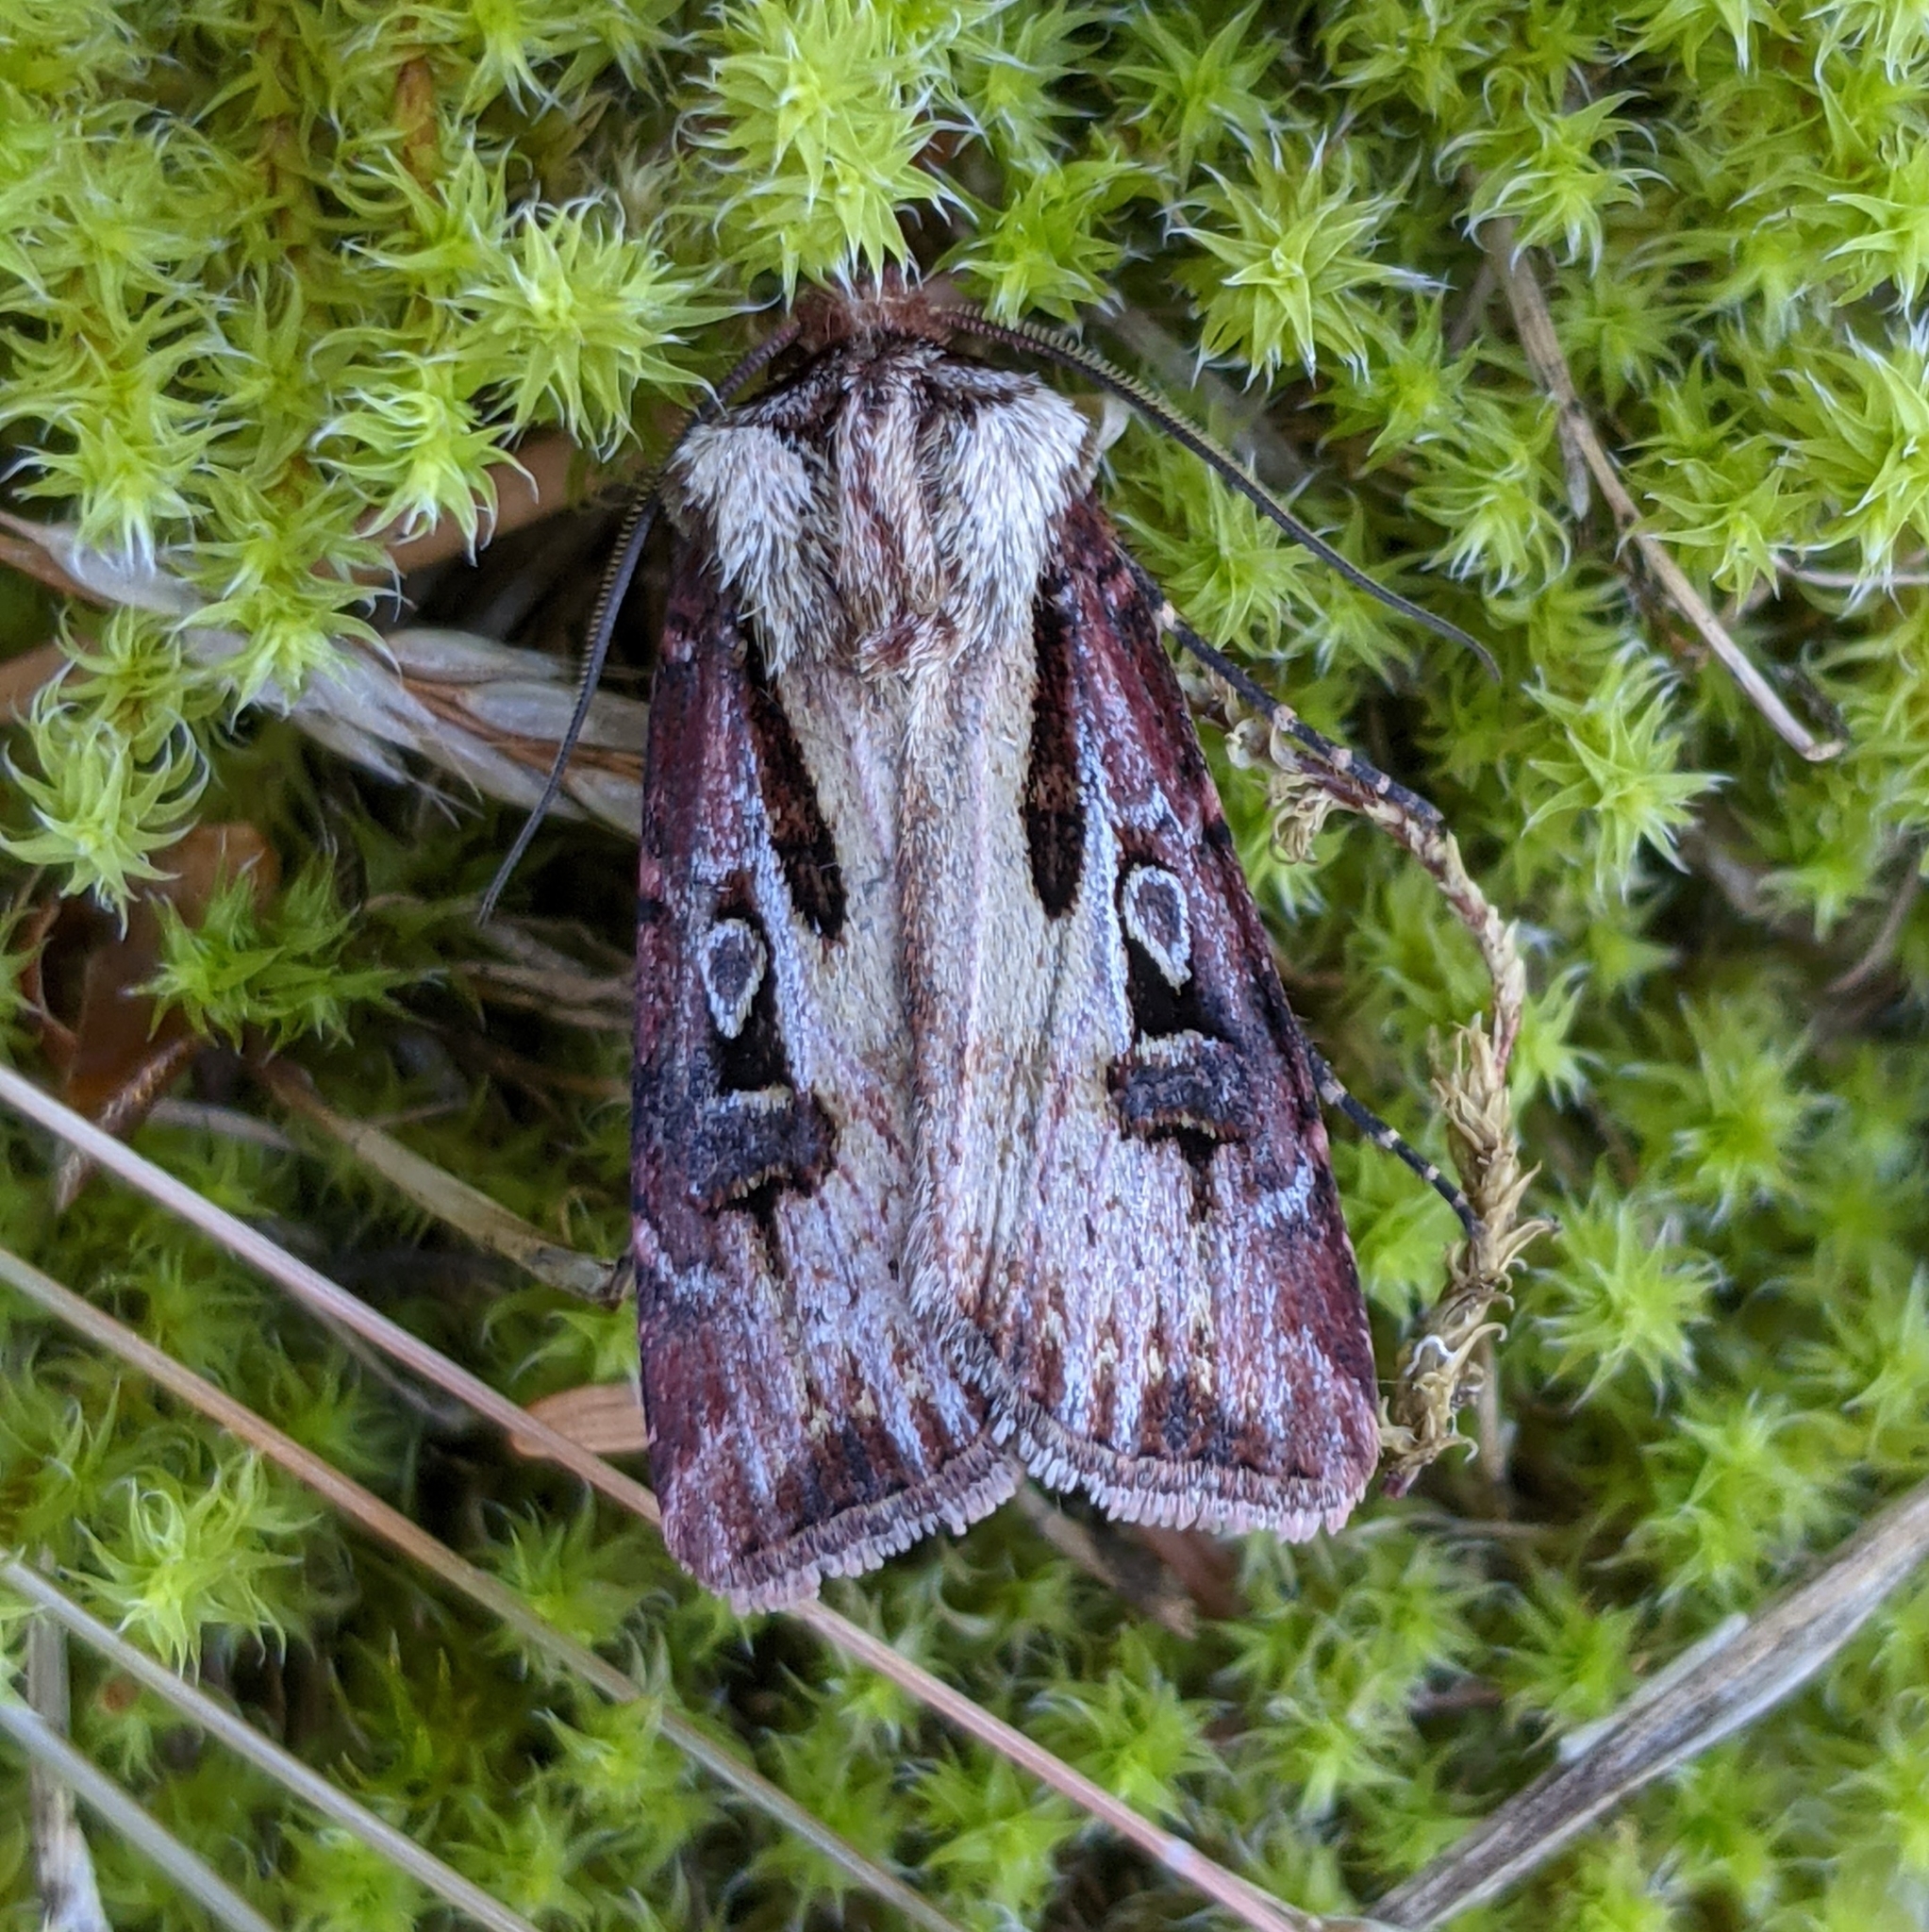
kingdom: Animalia
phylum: Arthropoda
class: Insecta
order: Lepidoptera
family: Noctuidae
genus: Agrotis
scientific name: Agrotis vancouverensis
